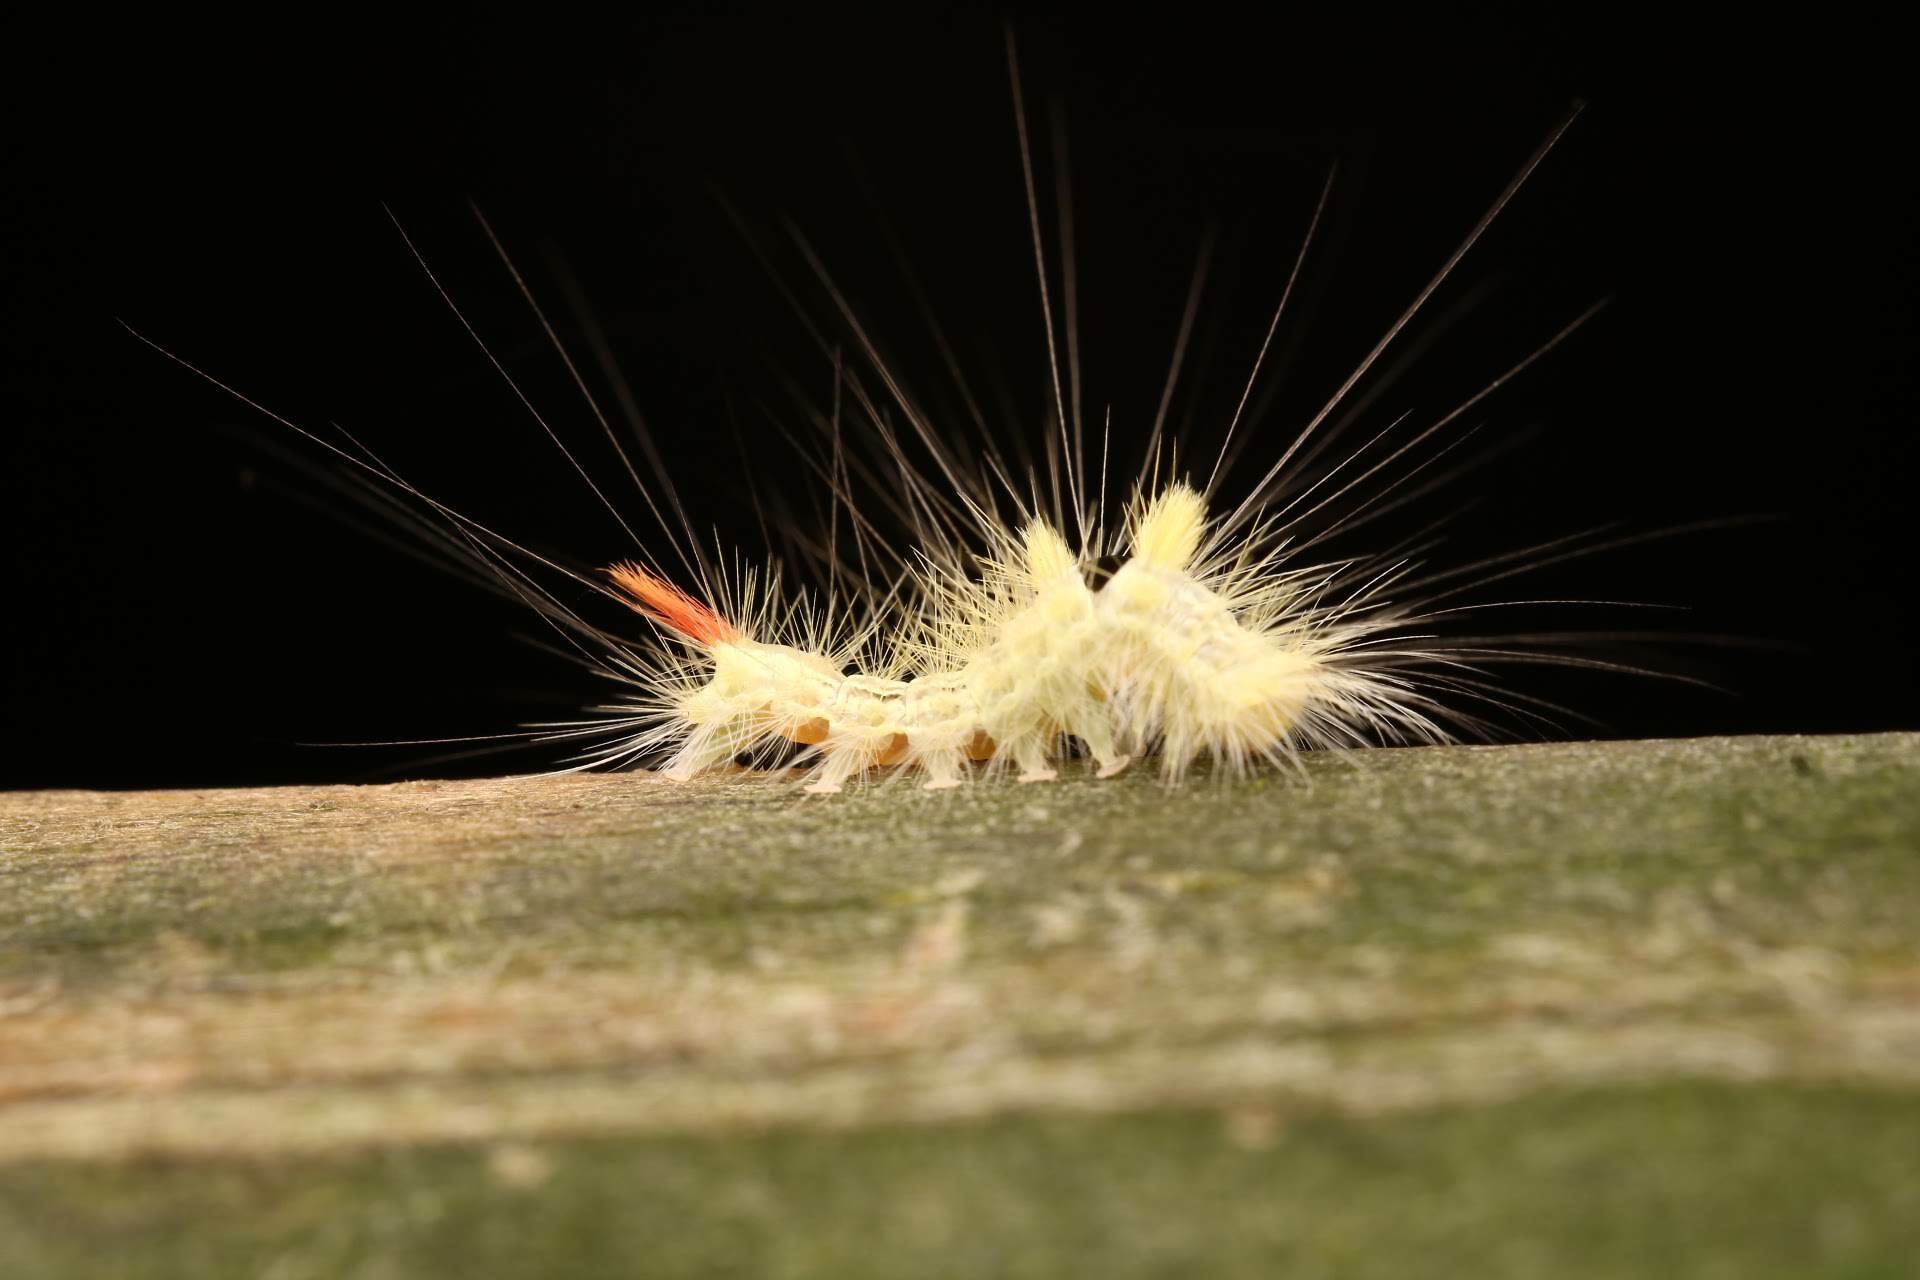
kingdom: Animalia
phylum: Arthropoda
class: Insecta
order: Lepidoptera
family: Erebidae
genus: Calliteara
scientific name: Calliteara pudibunda
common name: Pale tussock
